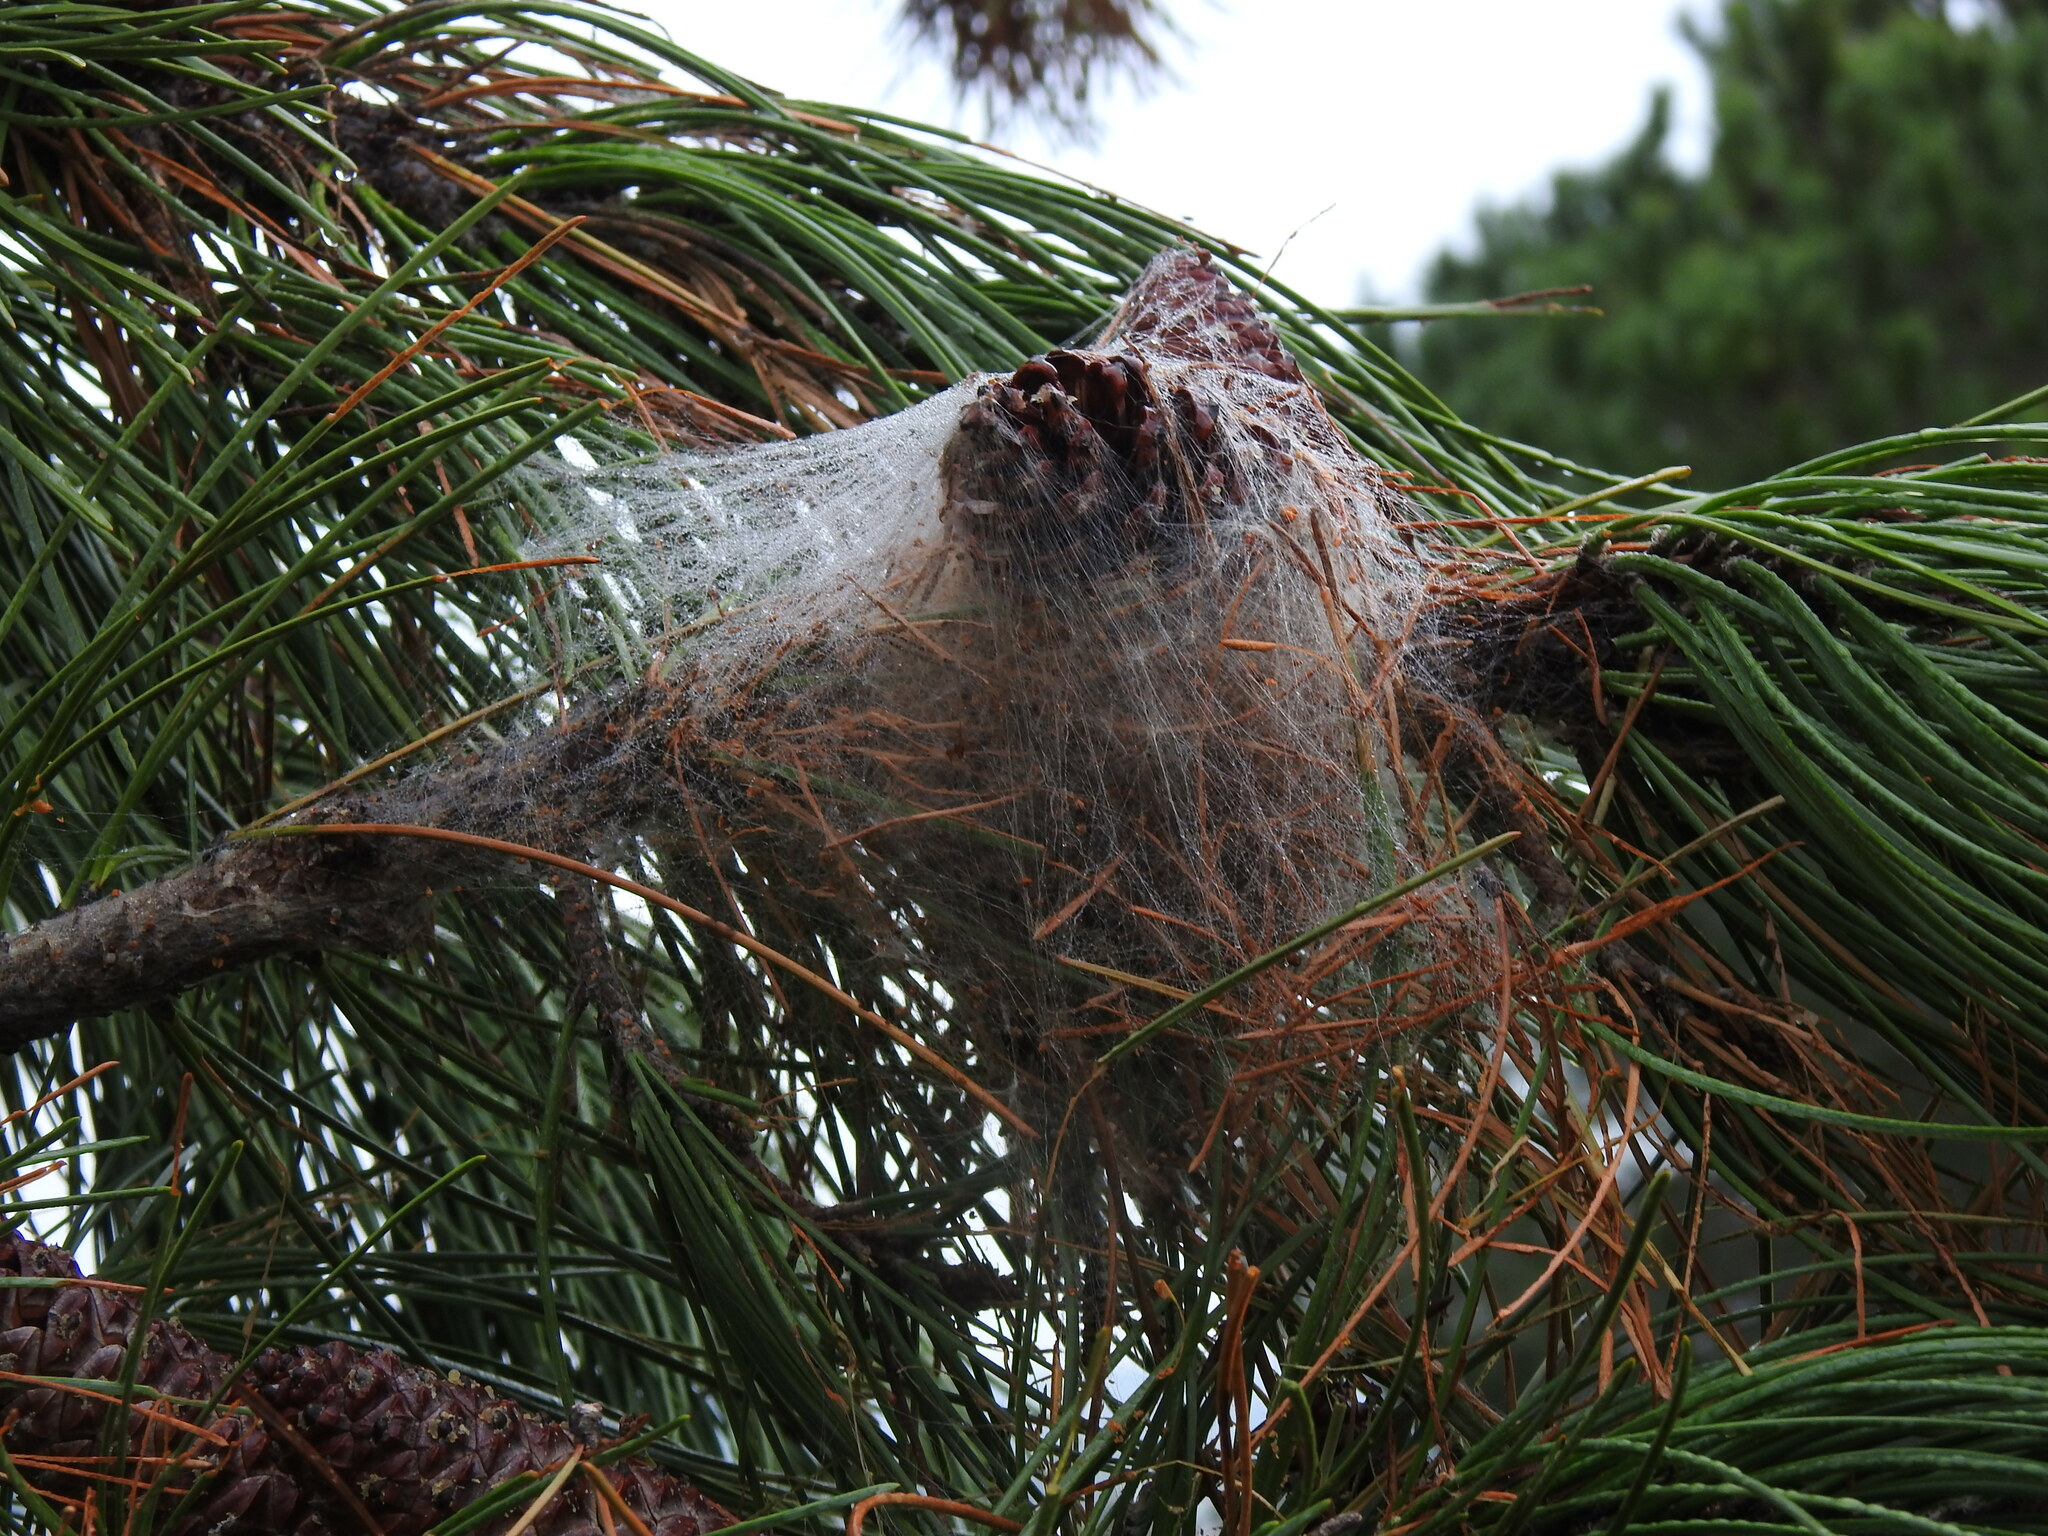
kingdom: Animalia
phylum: Arthropoda
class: Insecta
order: Lepidoptera
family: Notodontidae
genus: Thaumetopoea
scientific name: Thaumetopoea pityocampa
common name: Pine processionary
